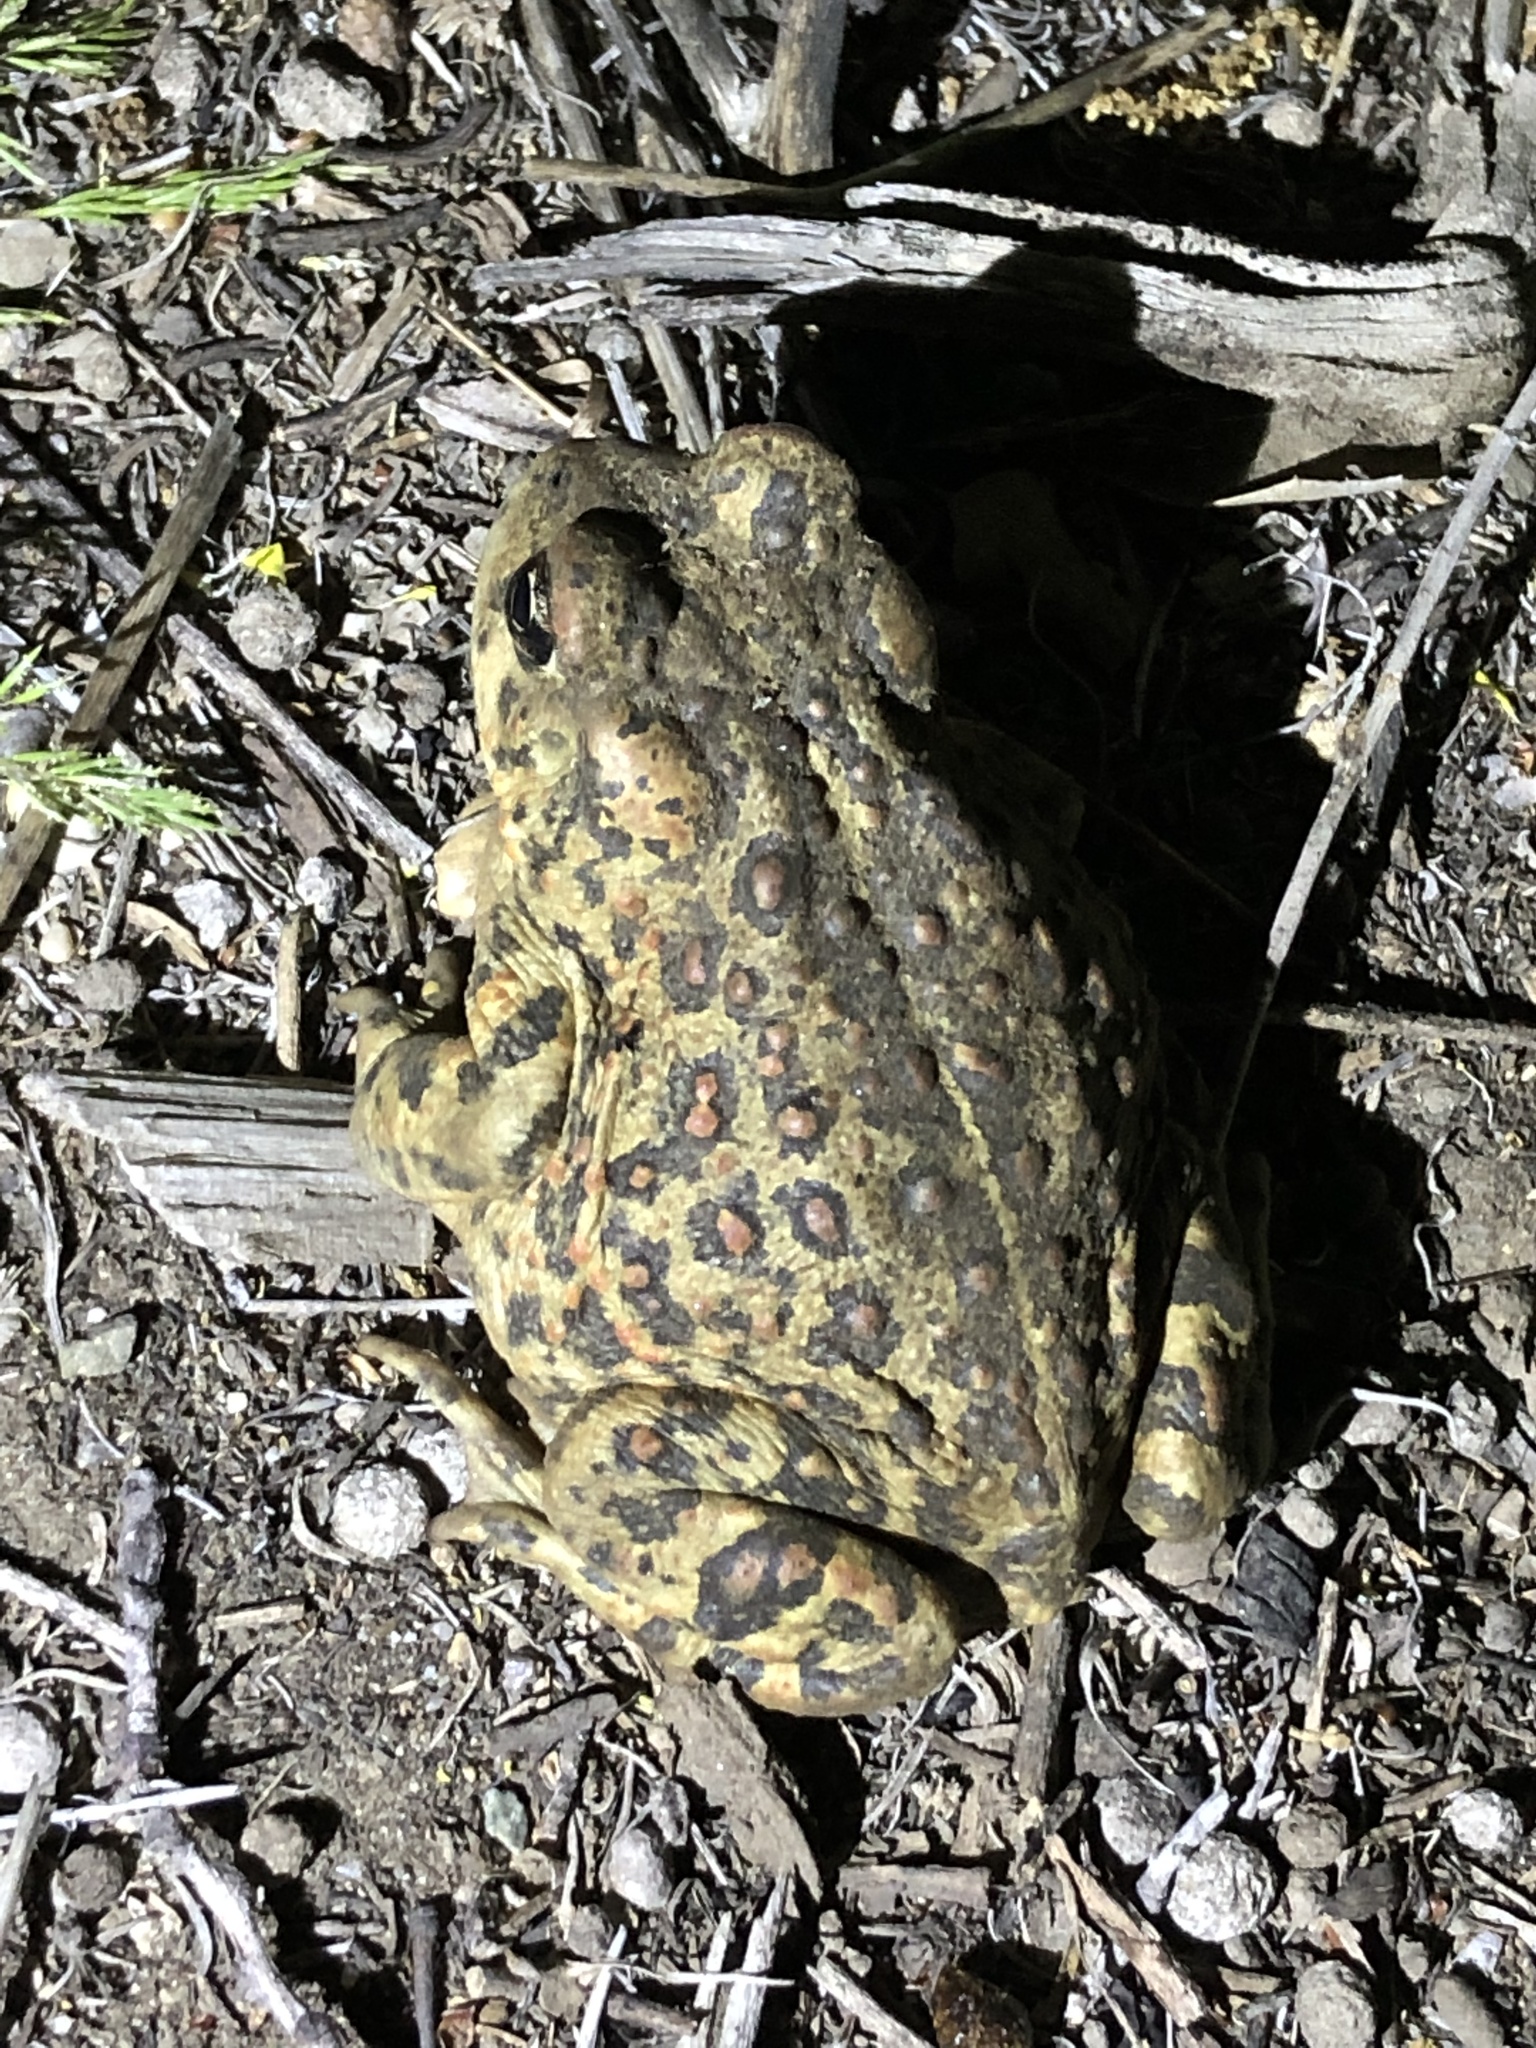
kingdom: Animalia
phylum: Chordata
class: Amphibia
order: Anura
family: Bufonidae
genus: Anaxyrus
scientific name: Anaxyrus boreas
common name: Western toad
